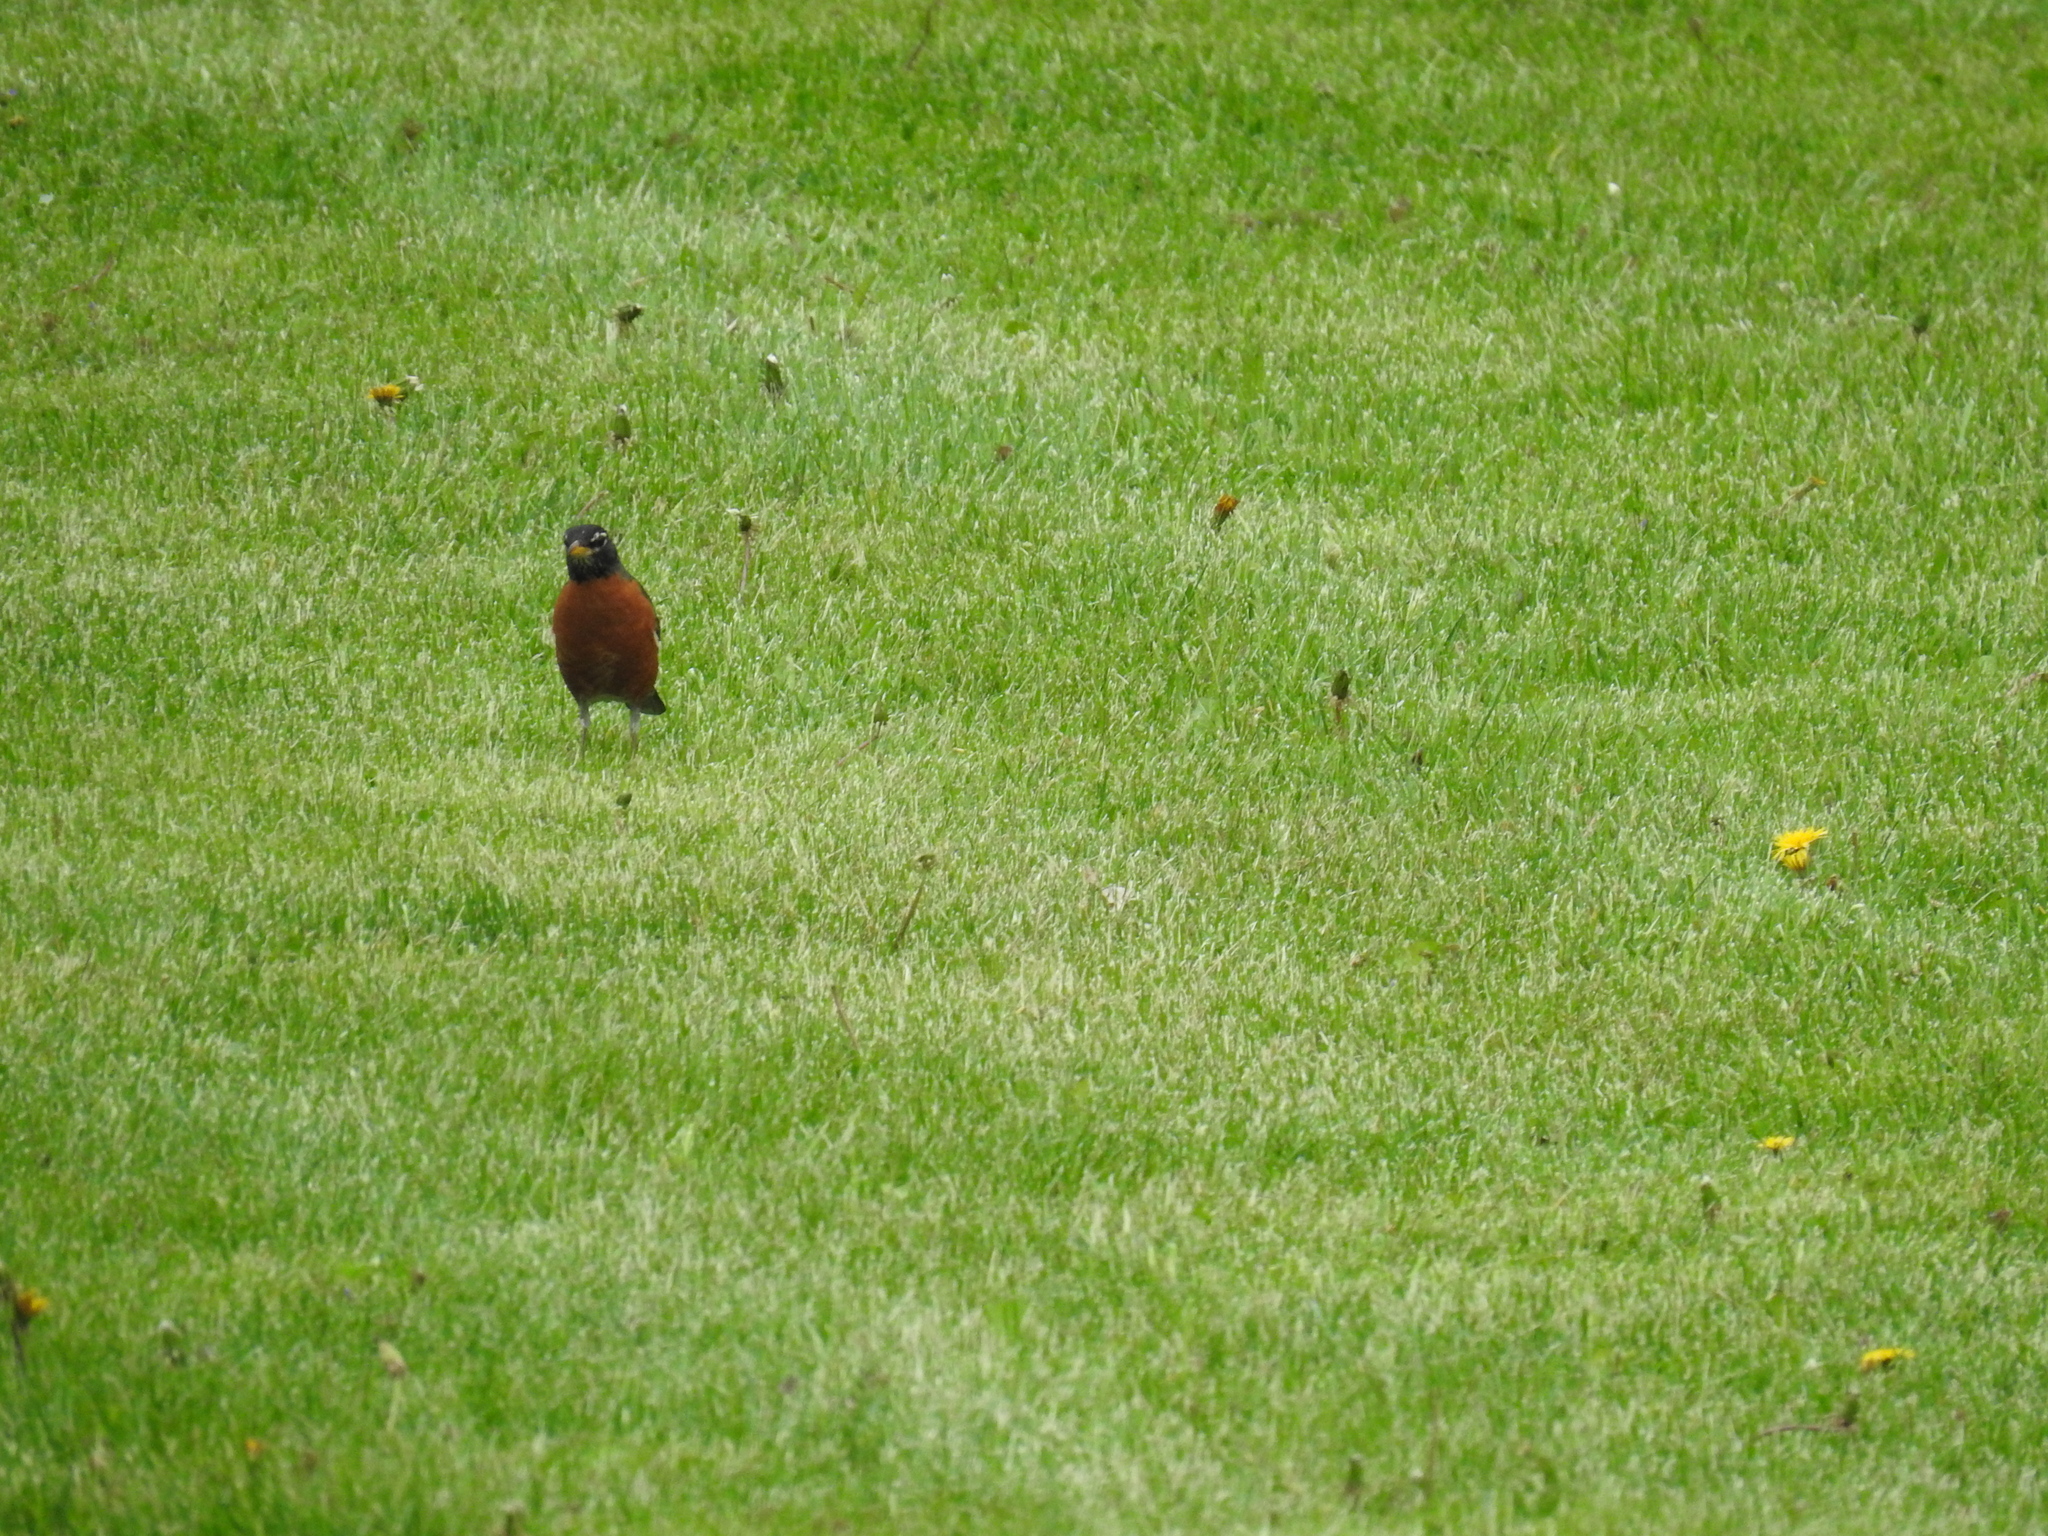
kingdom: Animalia
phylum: Chordata
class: Aves
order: Passeriformes
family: Turdidae
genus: Turdus
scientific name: Turdus migratorius
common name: American robin
